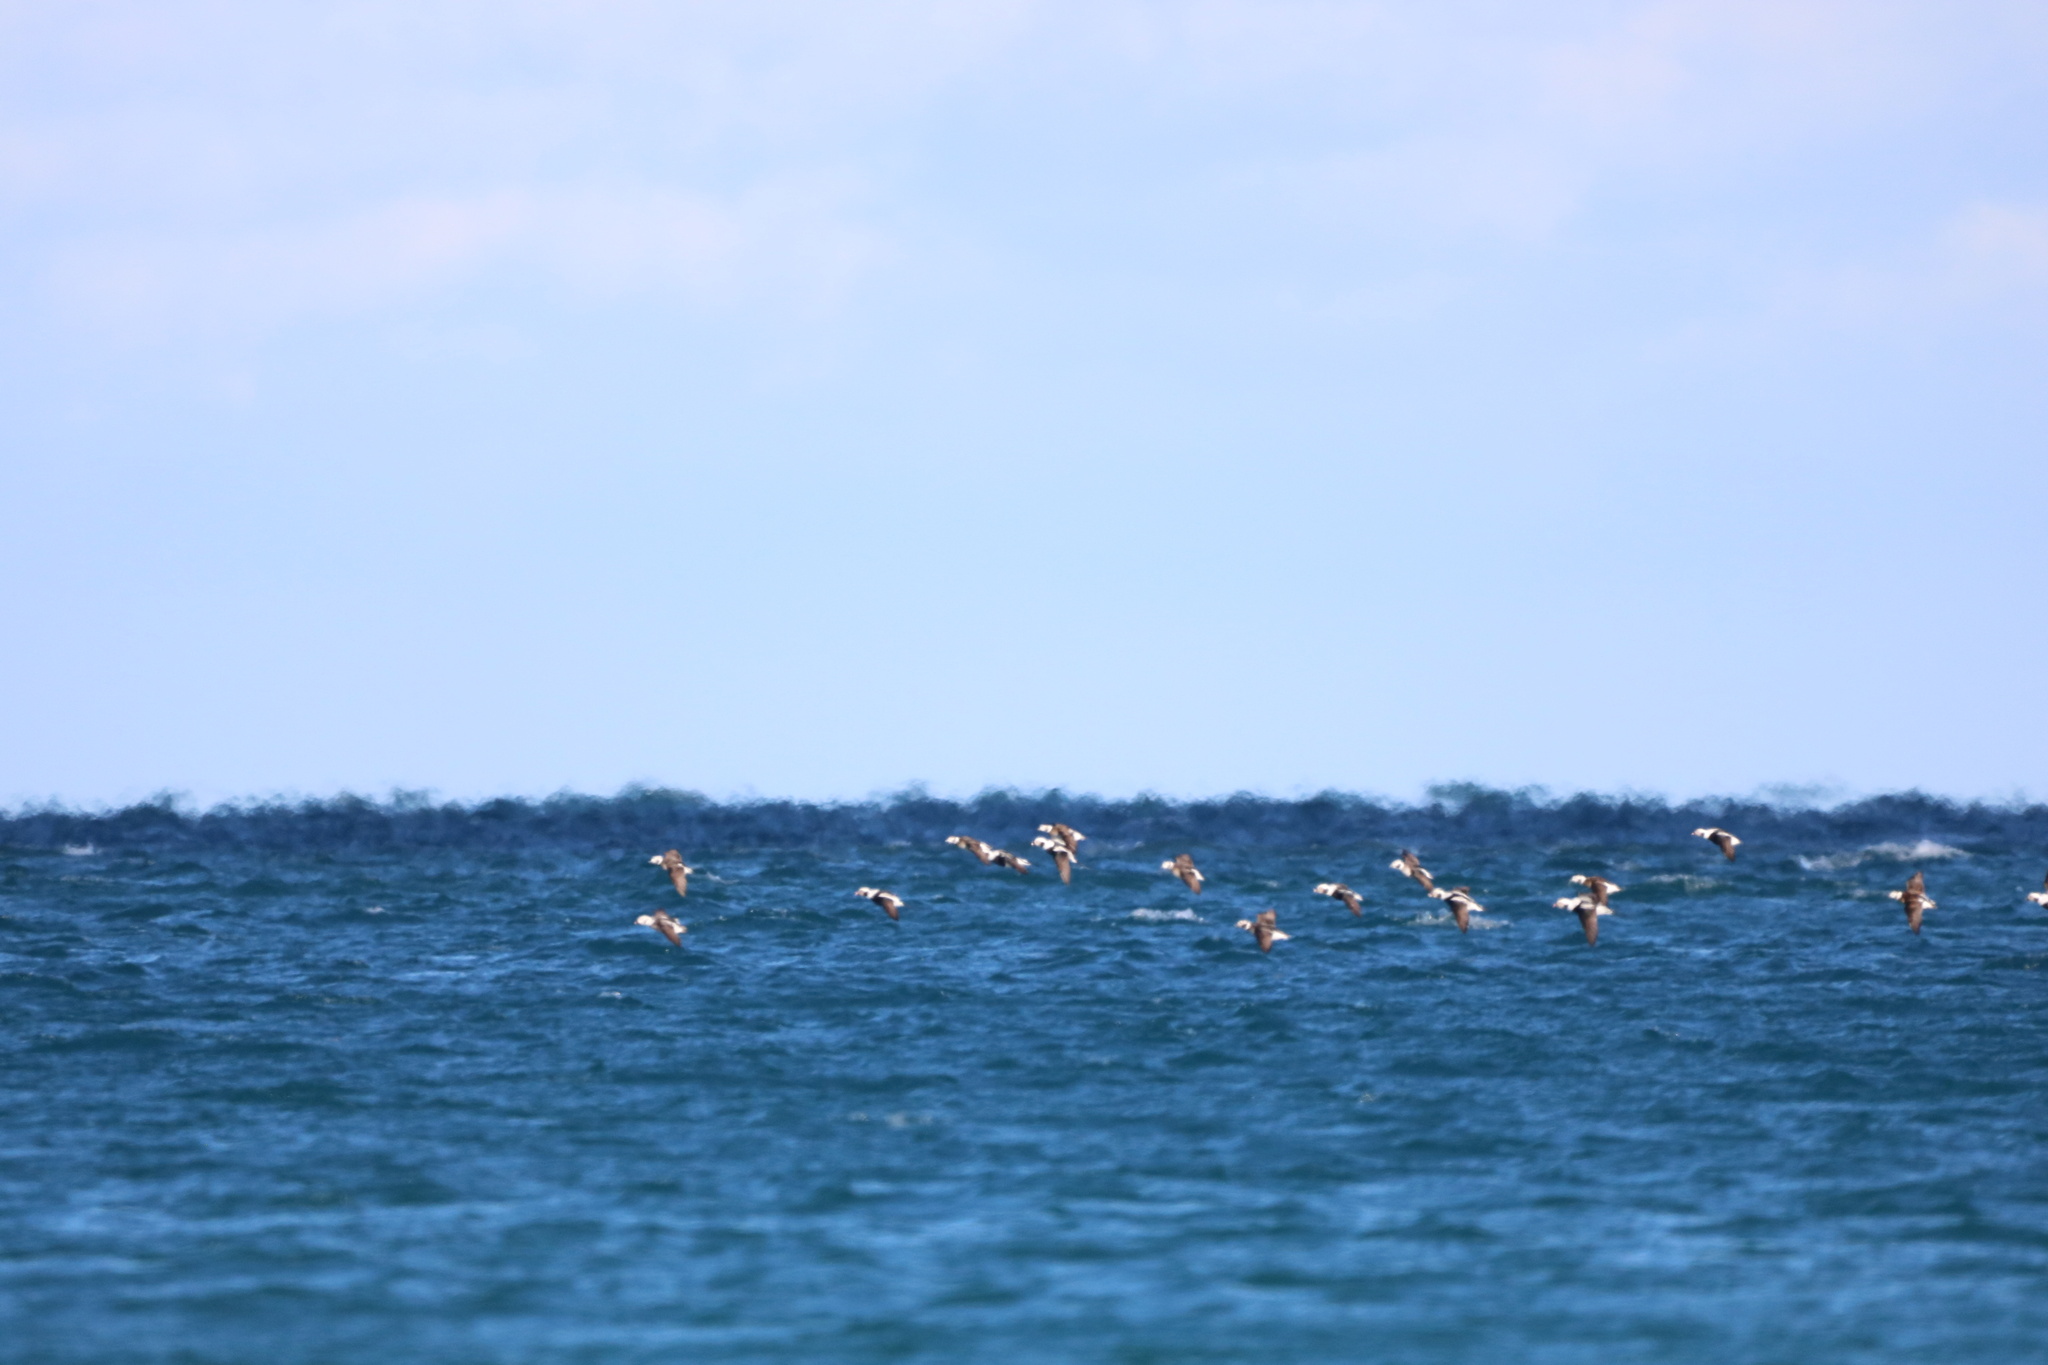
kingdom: Animalia
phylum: Chordata
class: Aves
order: Anseriformes
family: Anatidae
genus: Clangula
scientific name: Clangula hyemalis
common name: Long-tailed duck
